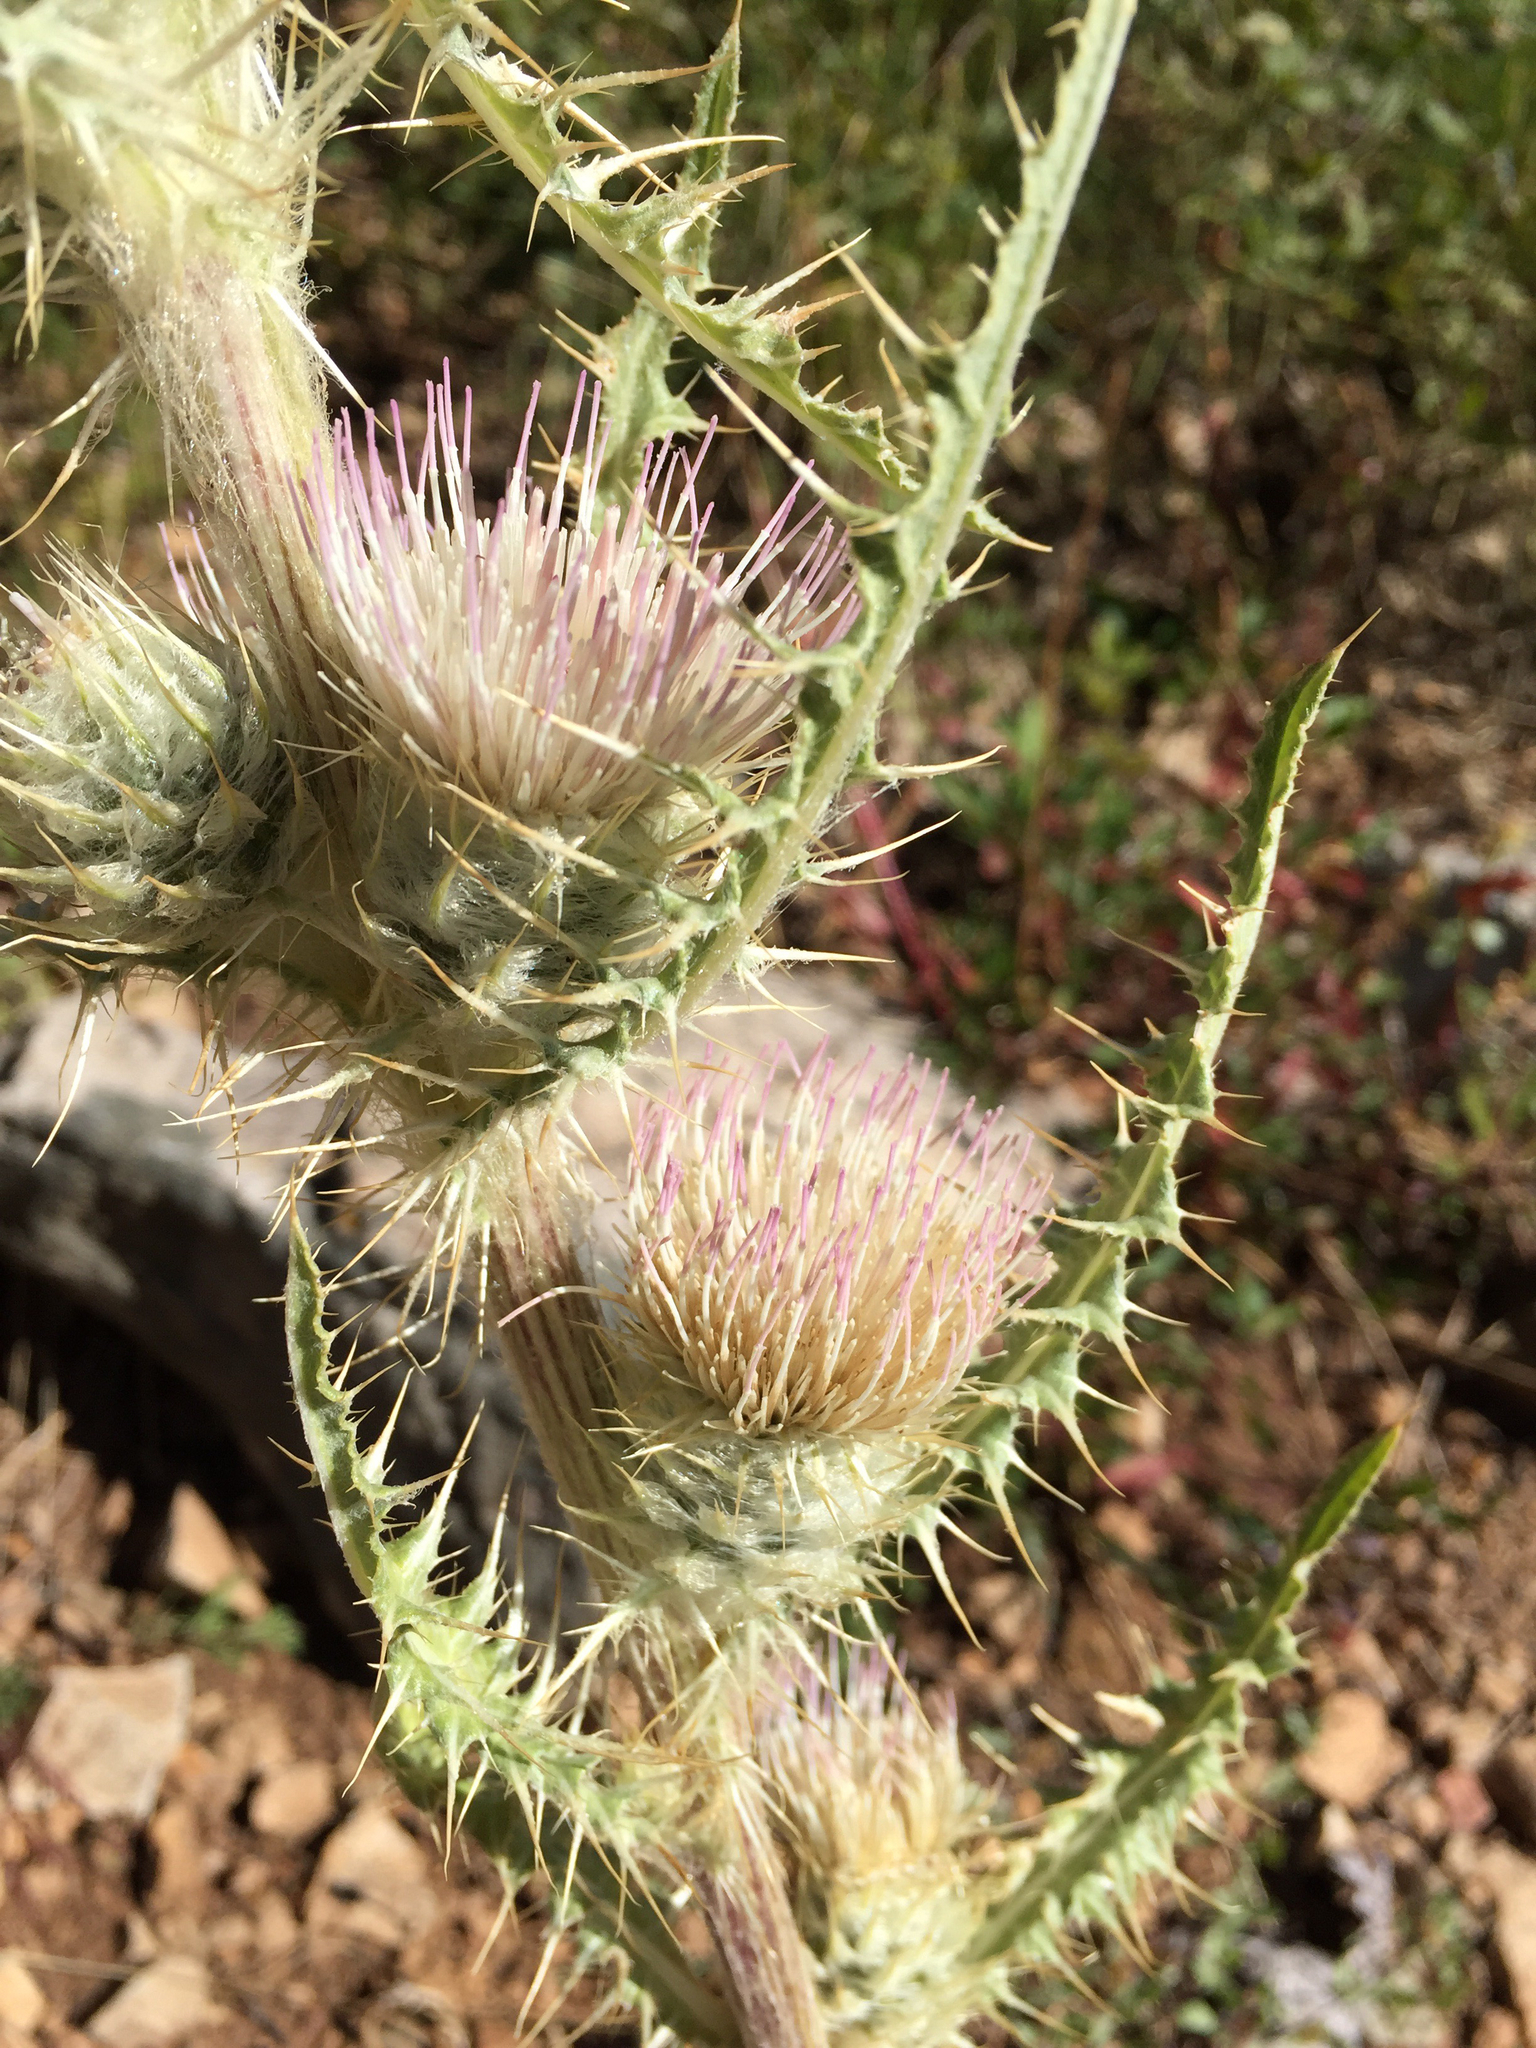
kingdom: Plantae
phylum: Tracheophyta
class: Magnoliopsida
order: Asterales
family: Asteraceae
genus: Cirsium
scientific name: Cirsium
